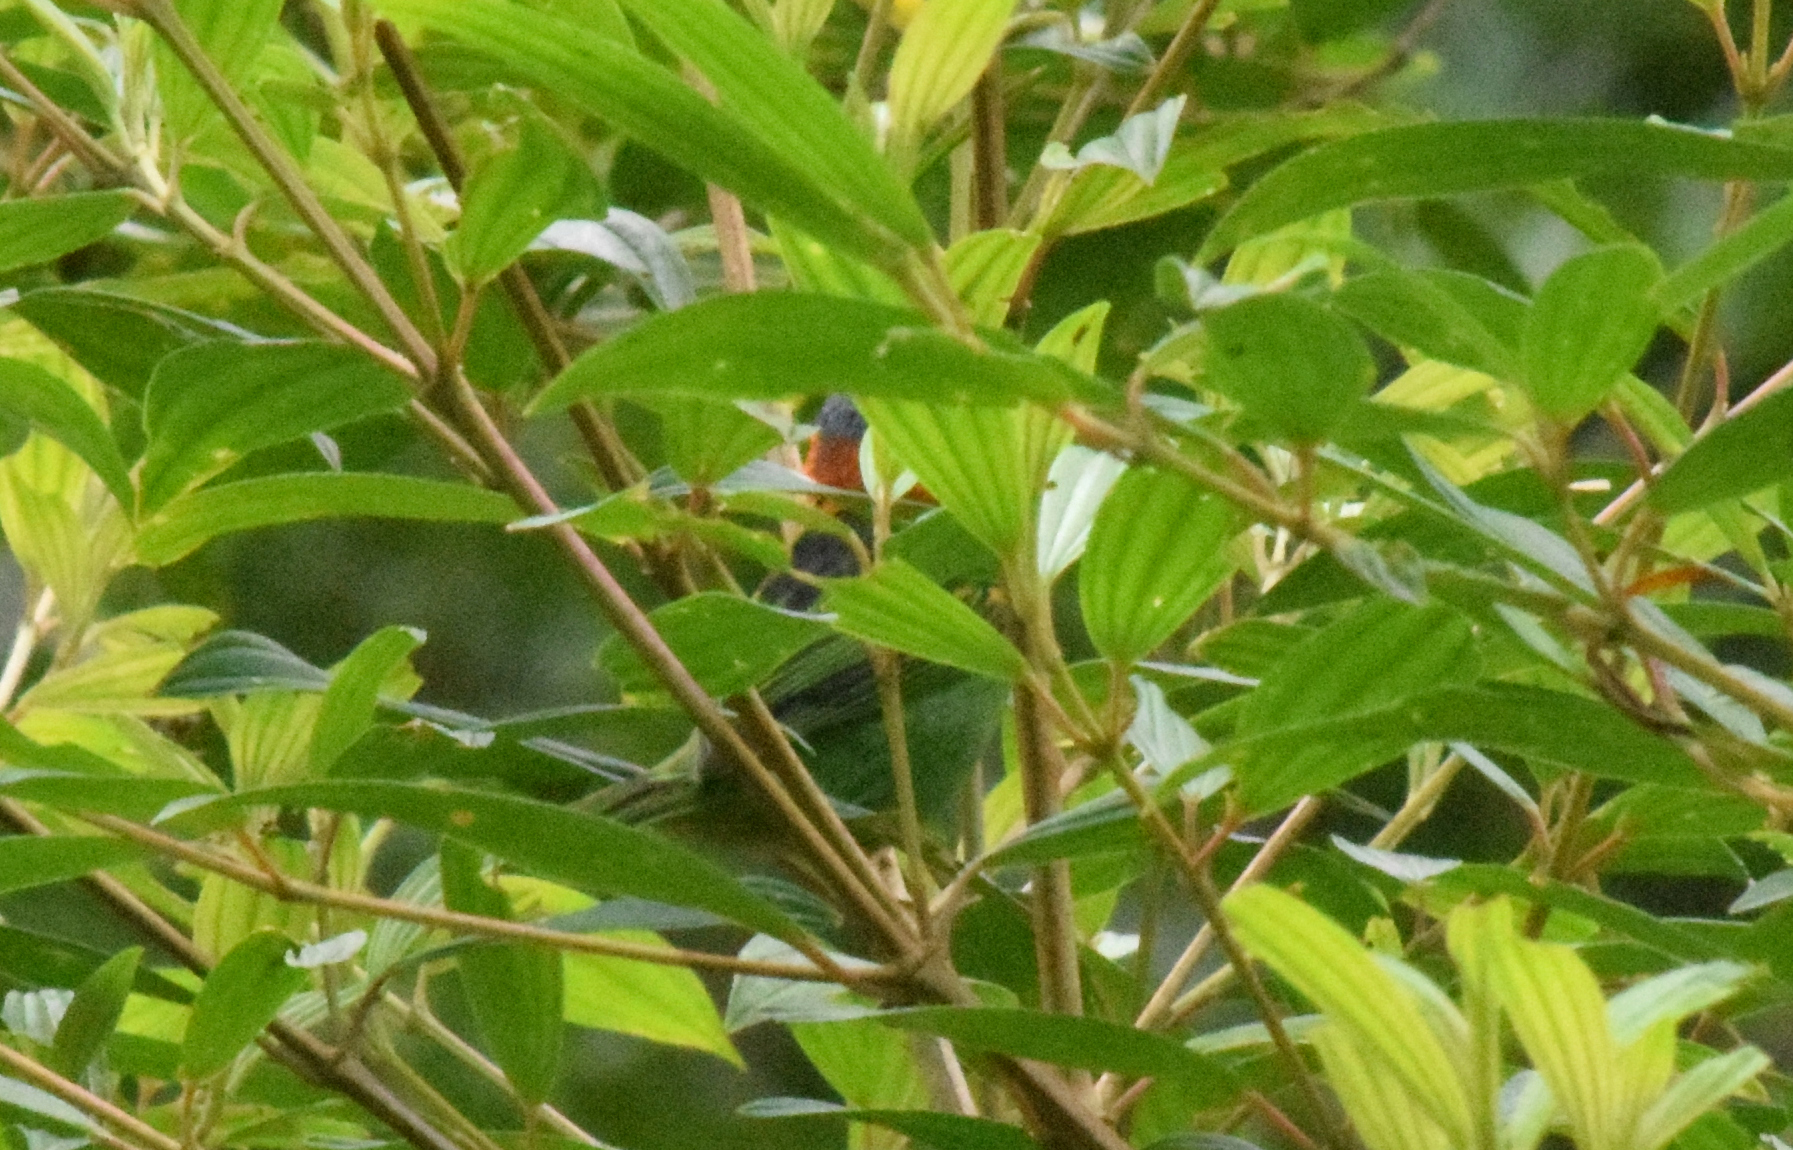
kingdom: Animalia
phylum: Chordata
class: Aves
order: Passeriformes
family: Thraupidae
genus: Tangara
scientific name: Tangara cyanocephala
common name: Red-necked tanager
